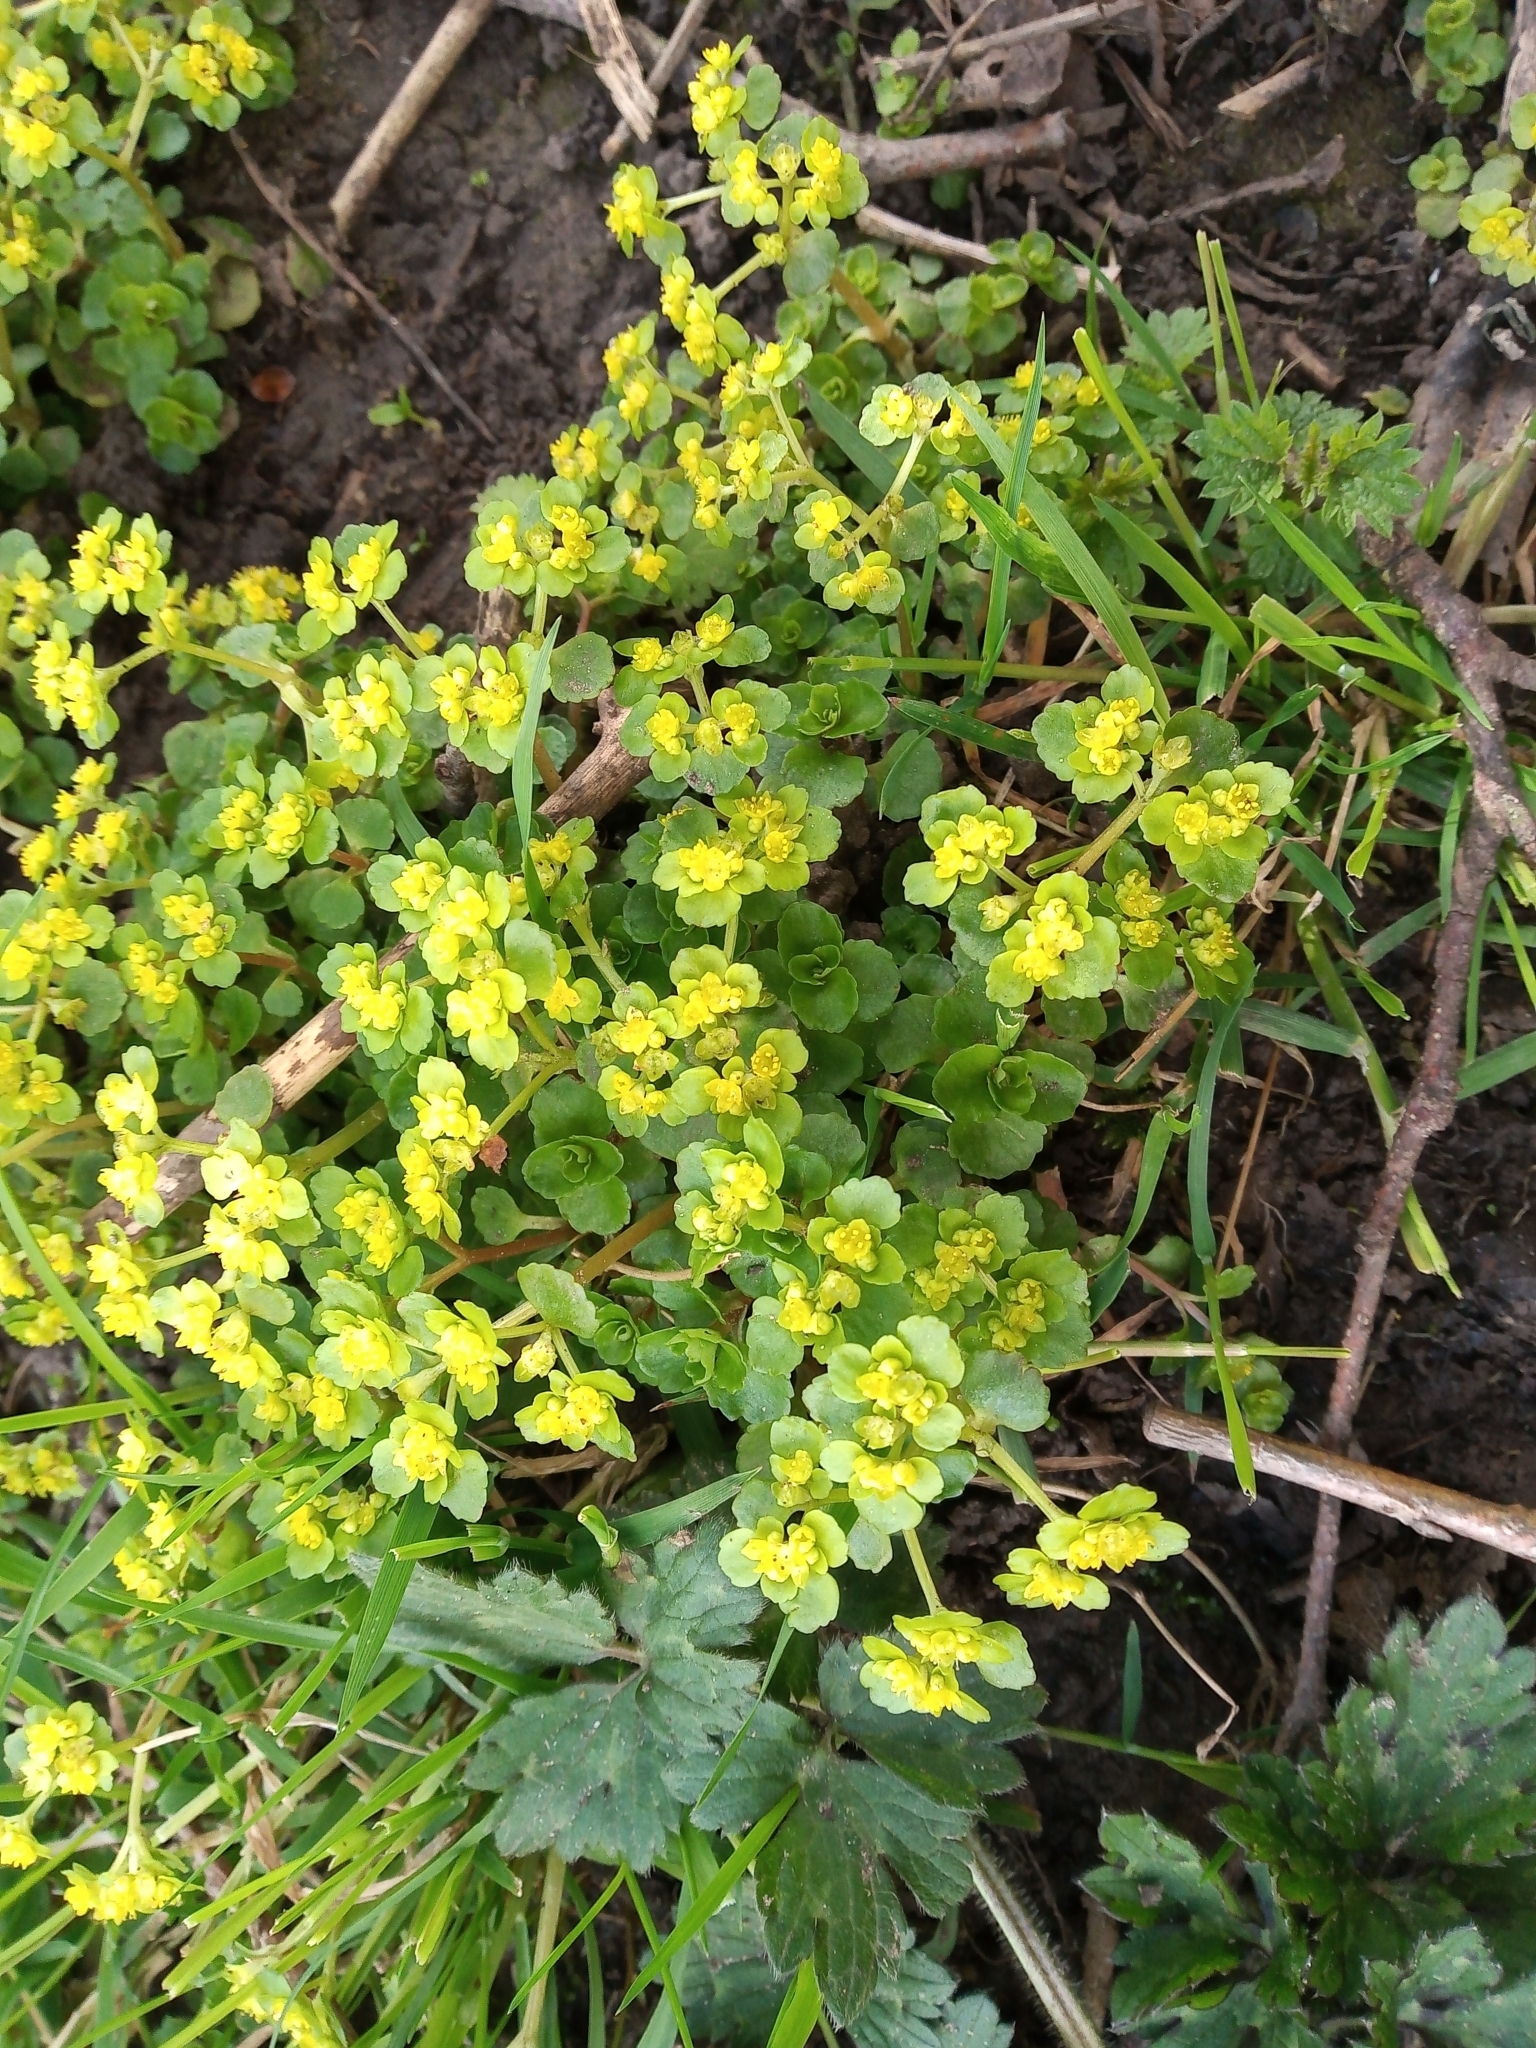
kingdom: Plantae
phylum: Tracheophyta
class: Magnoliopsida
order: Saxifragales
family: Saxifragaceae
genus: Chrysosplenium
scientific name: Chrysosplenium oppositifolium
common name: Opposite-leaved golden-saxifrage
